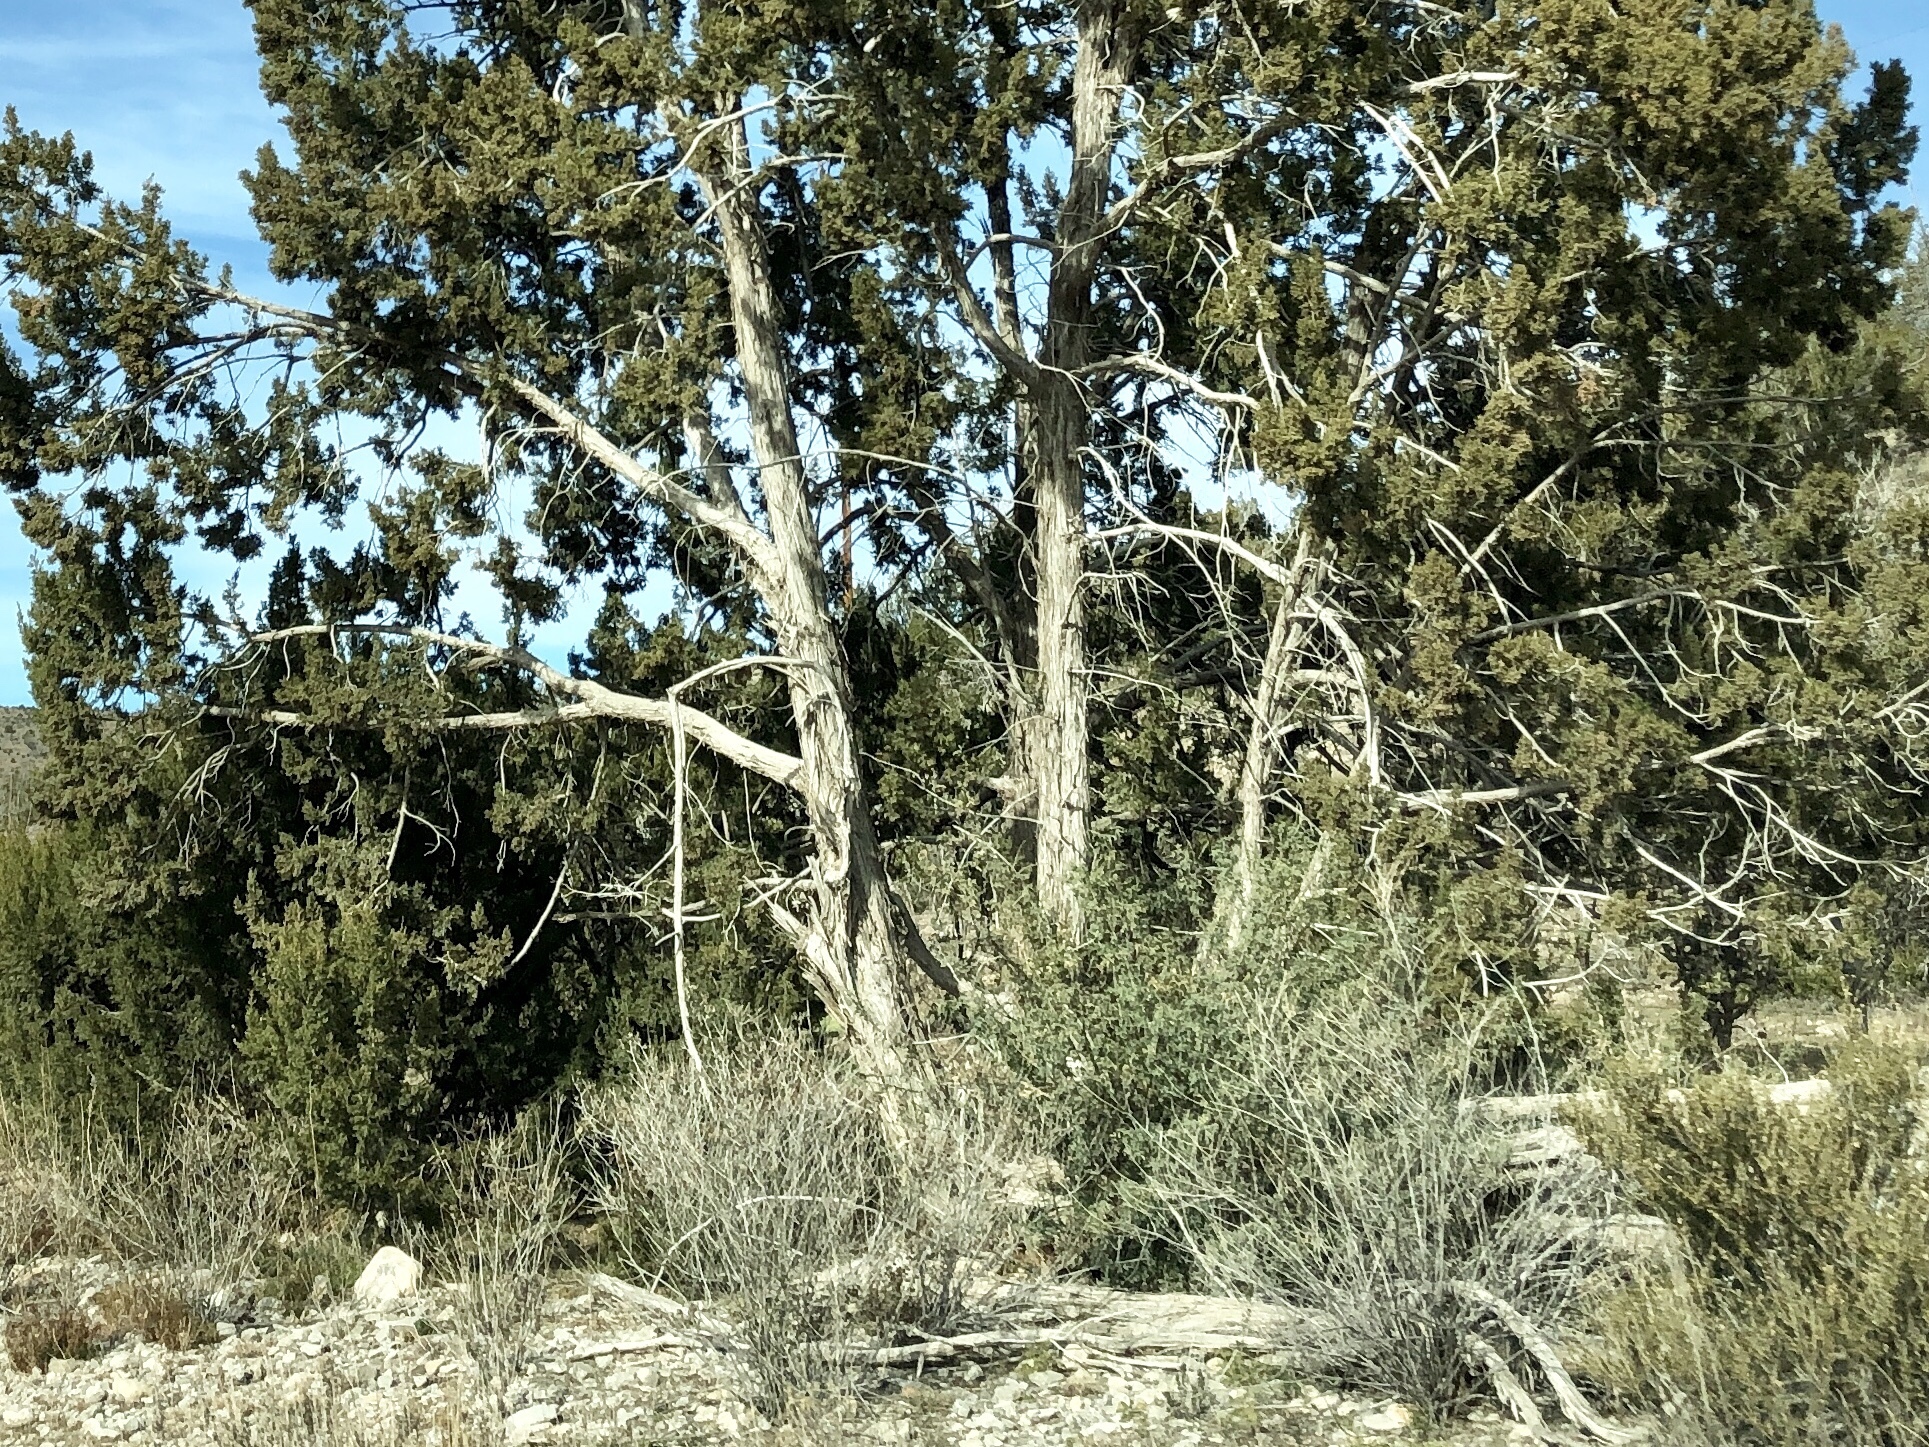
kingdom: Plantae
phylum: Tracheophyta
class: Pinopsida
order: Pinales
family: Cupressaceae
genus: Juniperus
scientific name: Juniperus monosperma
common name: One-seed juniper
